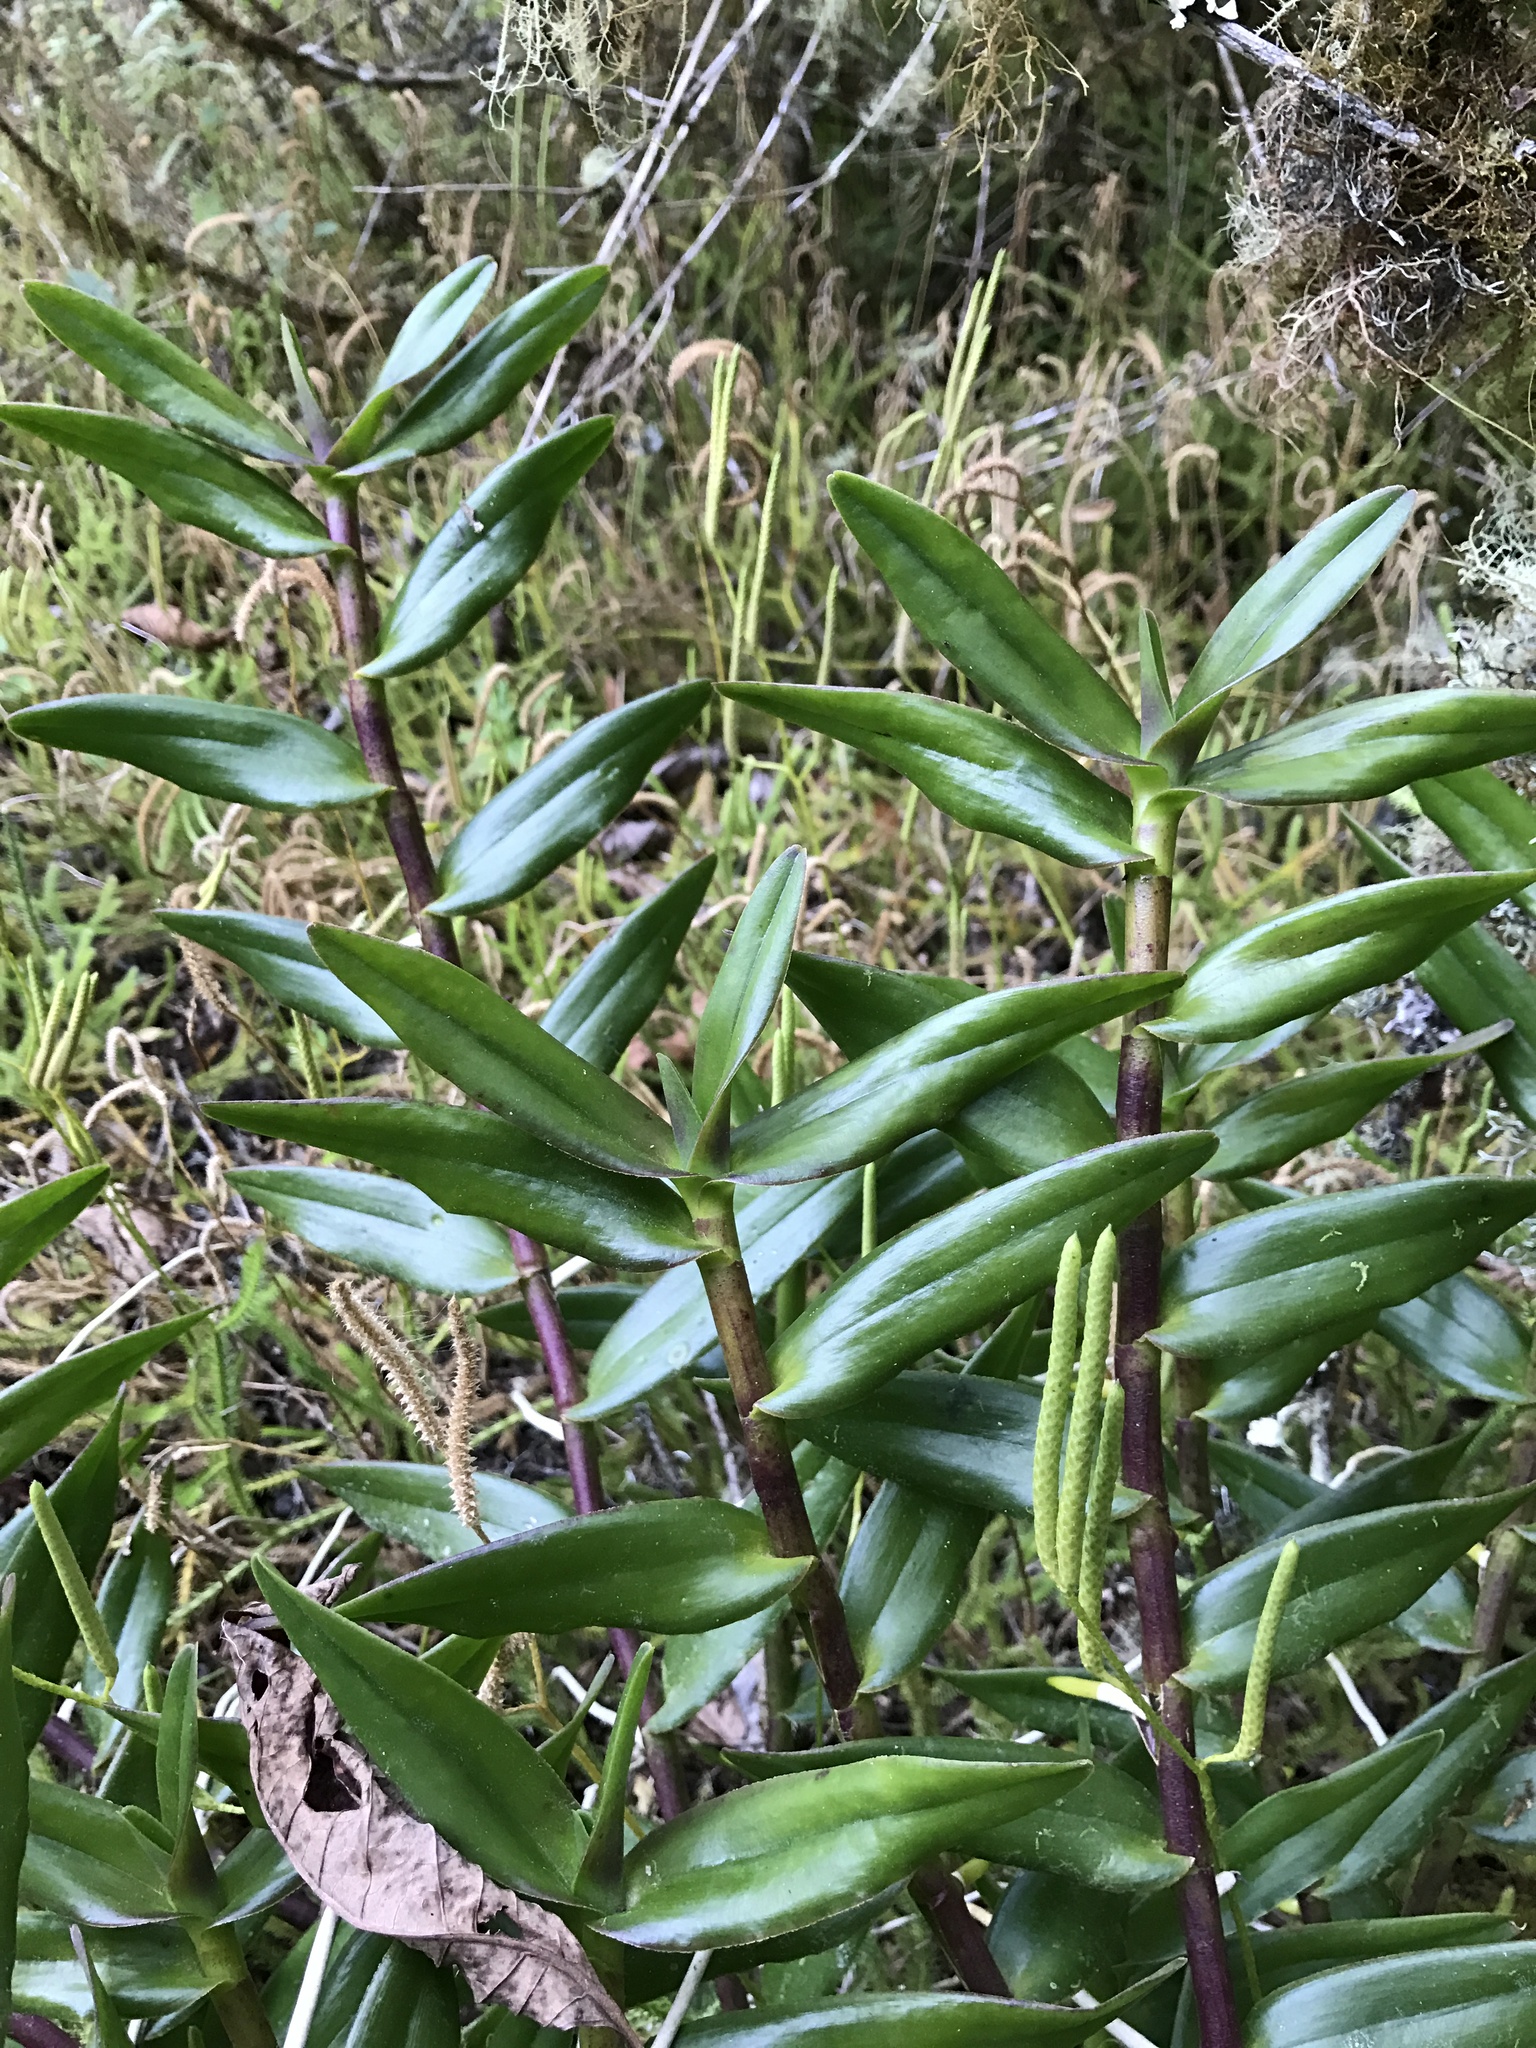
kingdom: Plantae
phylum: Tracheophyta
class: Liliopsida
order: Asparagales
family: Orchidaceae
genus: Epidendrum
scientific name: Epidendrum radicans
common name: Fire star orchid
